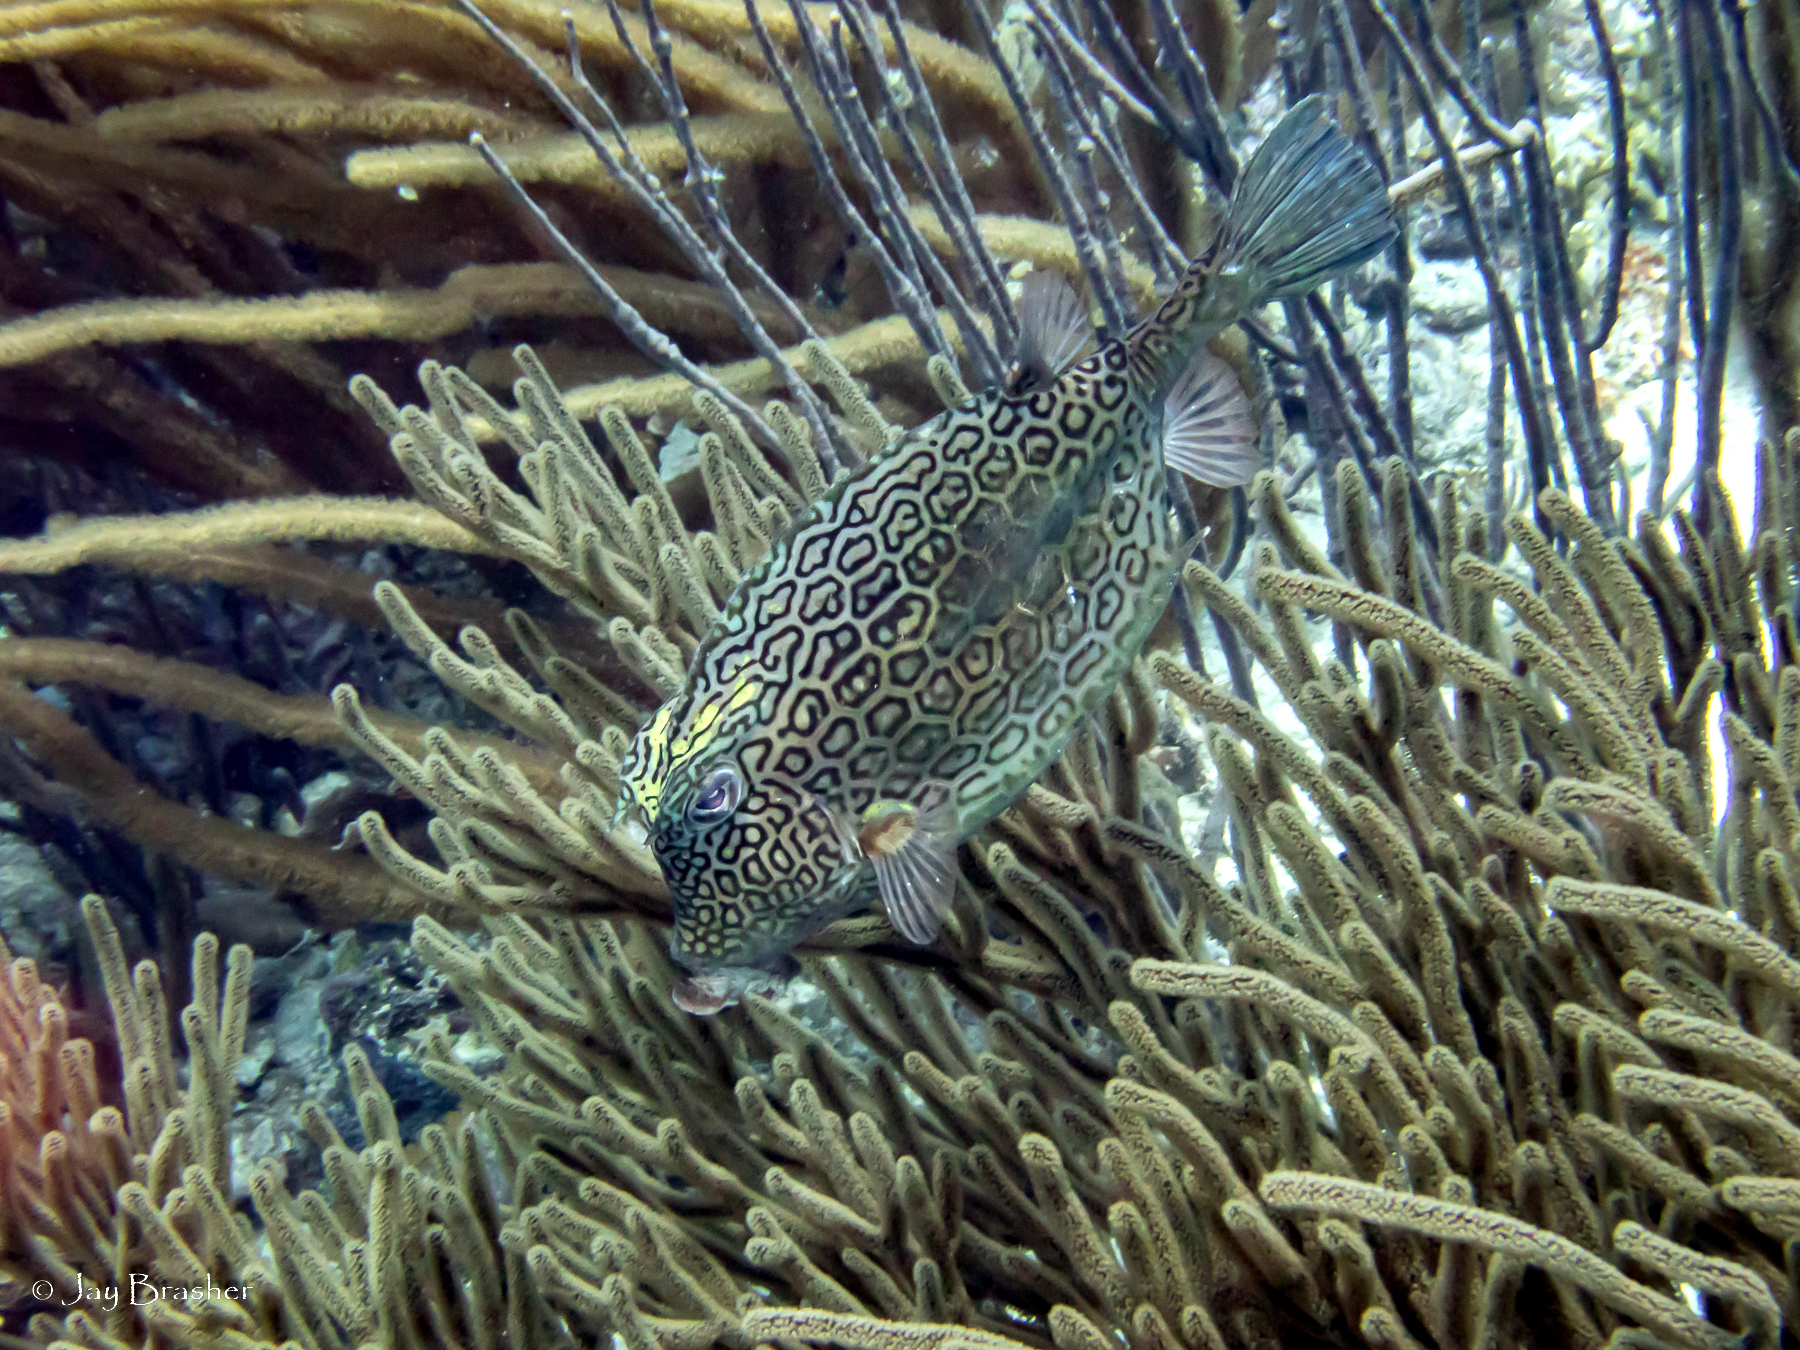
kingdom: Animalia
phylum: Chordata
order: Tetraodontiformes
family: Ostraciidae
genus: Acanthostracion
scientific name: Acanthostracion polygonius
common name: Honeycomb cowfish
